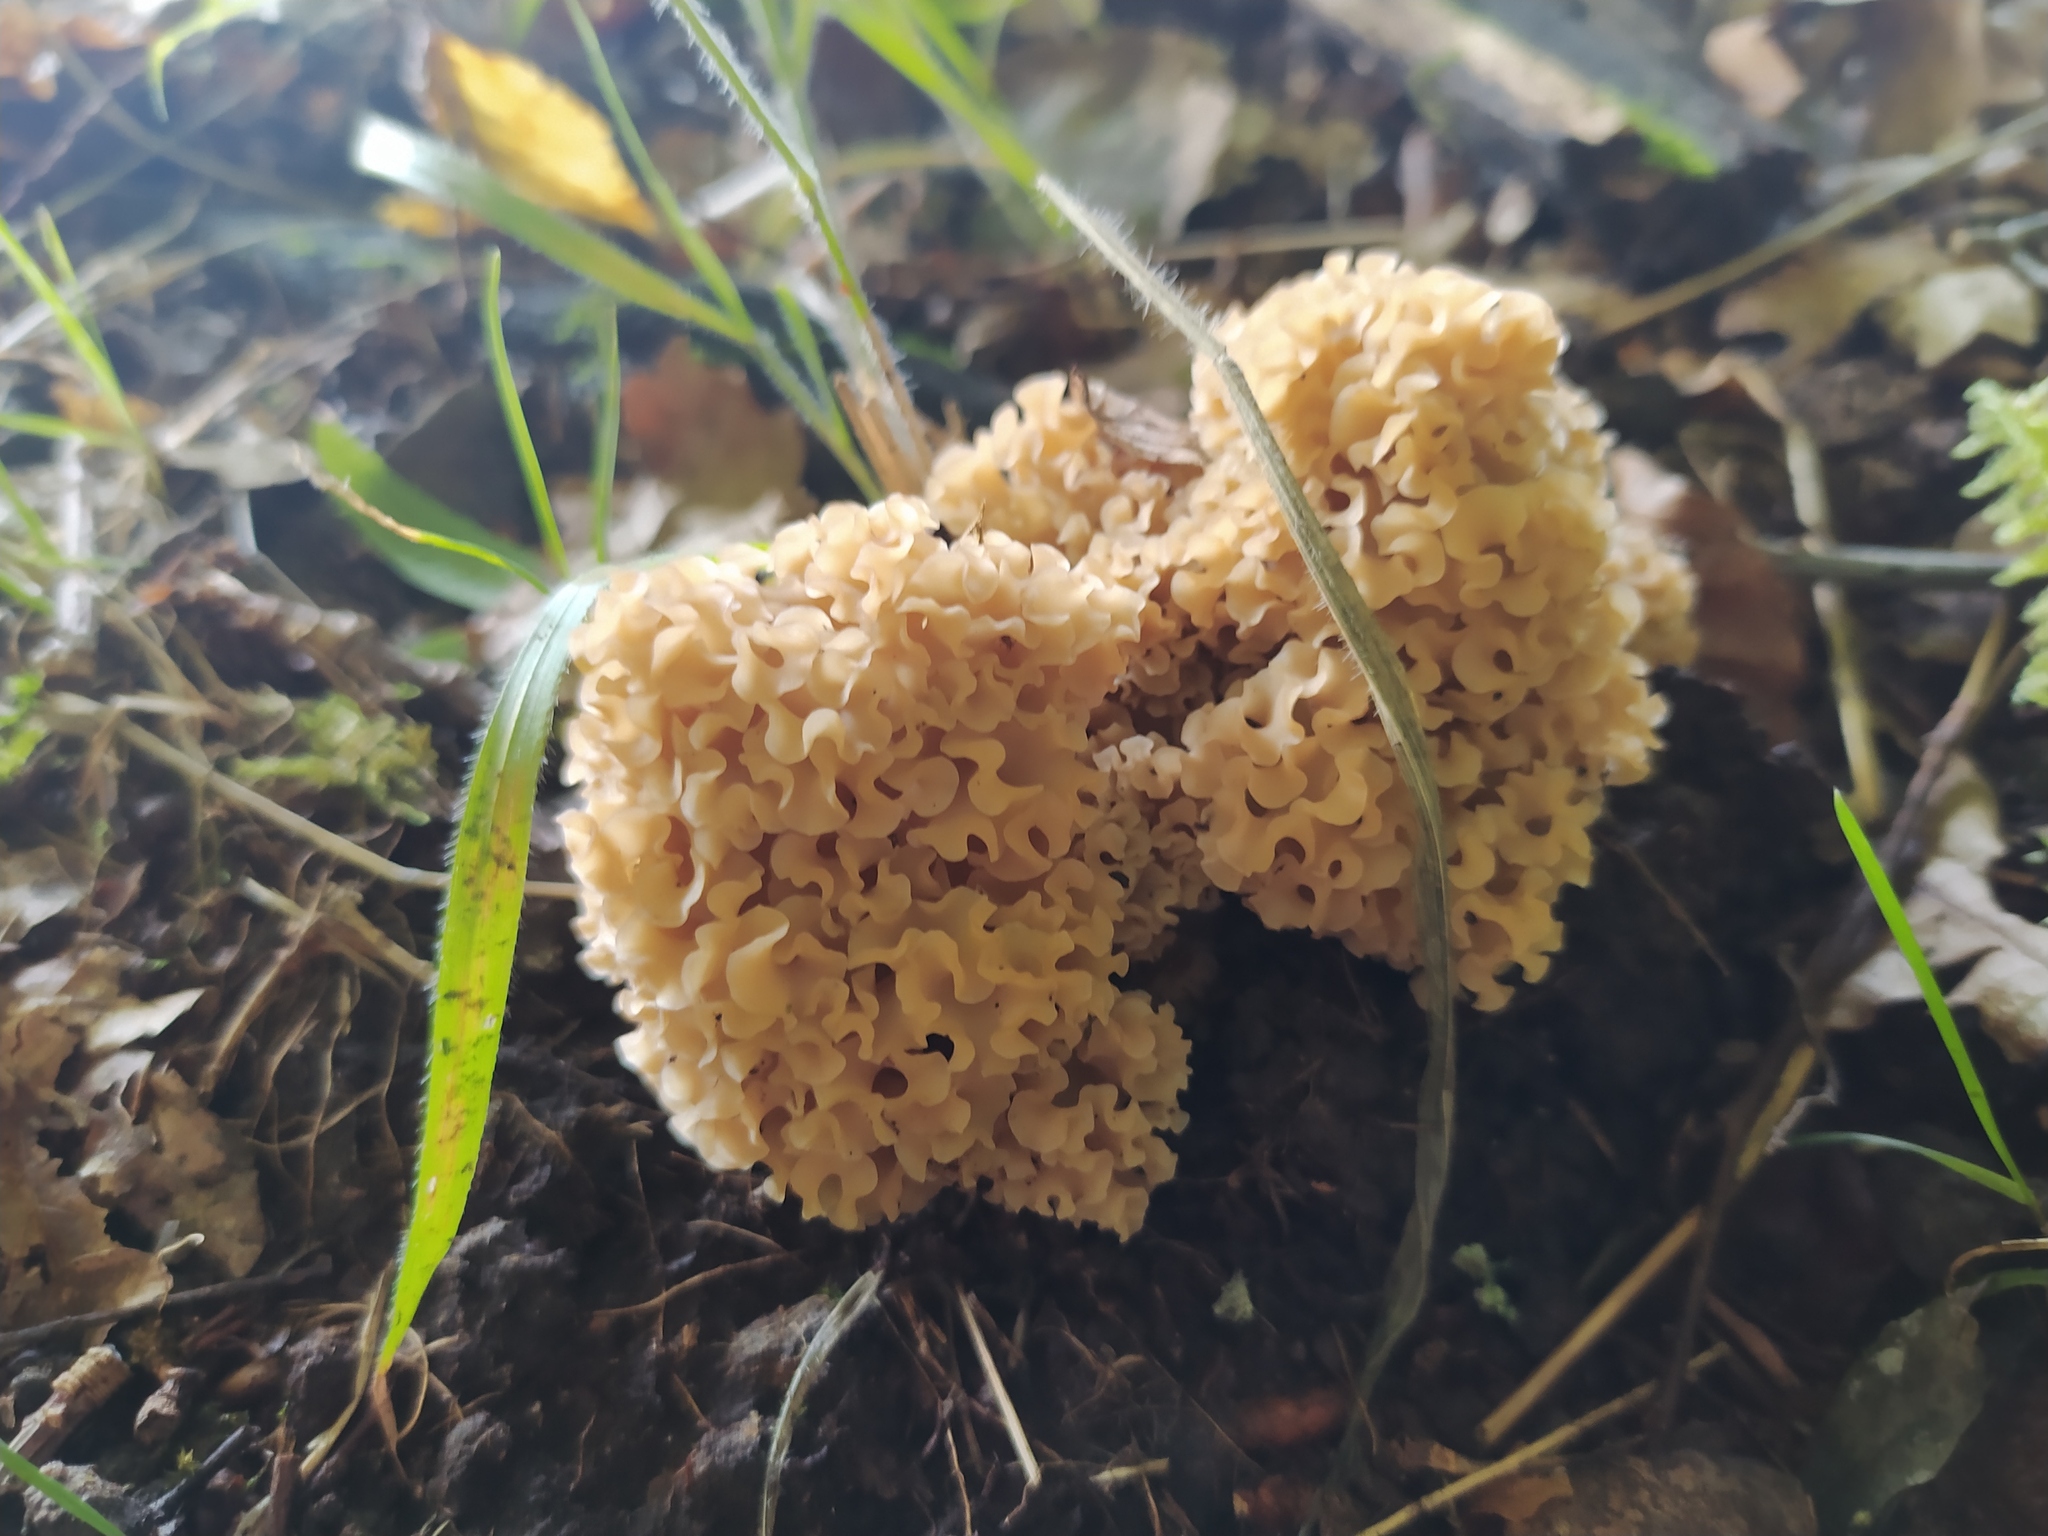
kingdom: Fungi
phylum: Basidiomycota
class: Agaricomycetes
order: Polyporales
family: Sparassidaceae
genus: Sparassis
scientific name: Sparassis crispa
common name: Brain fungus
